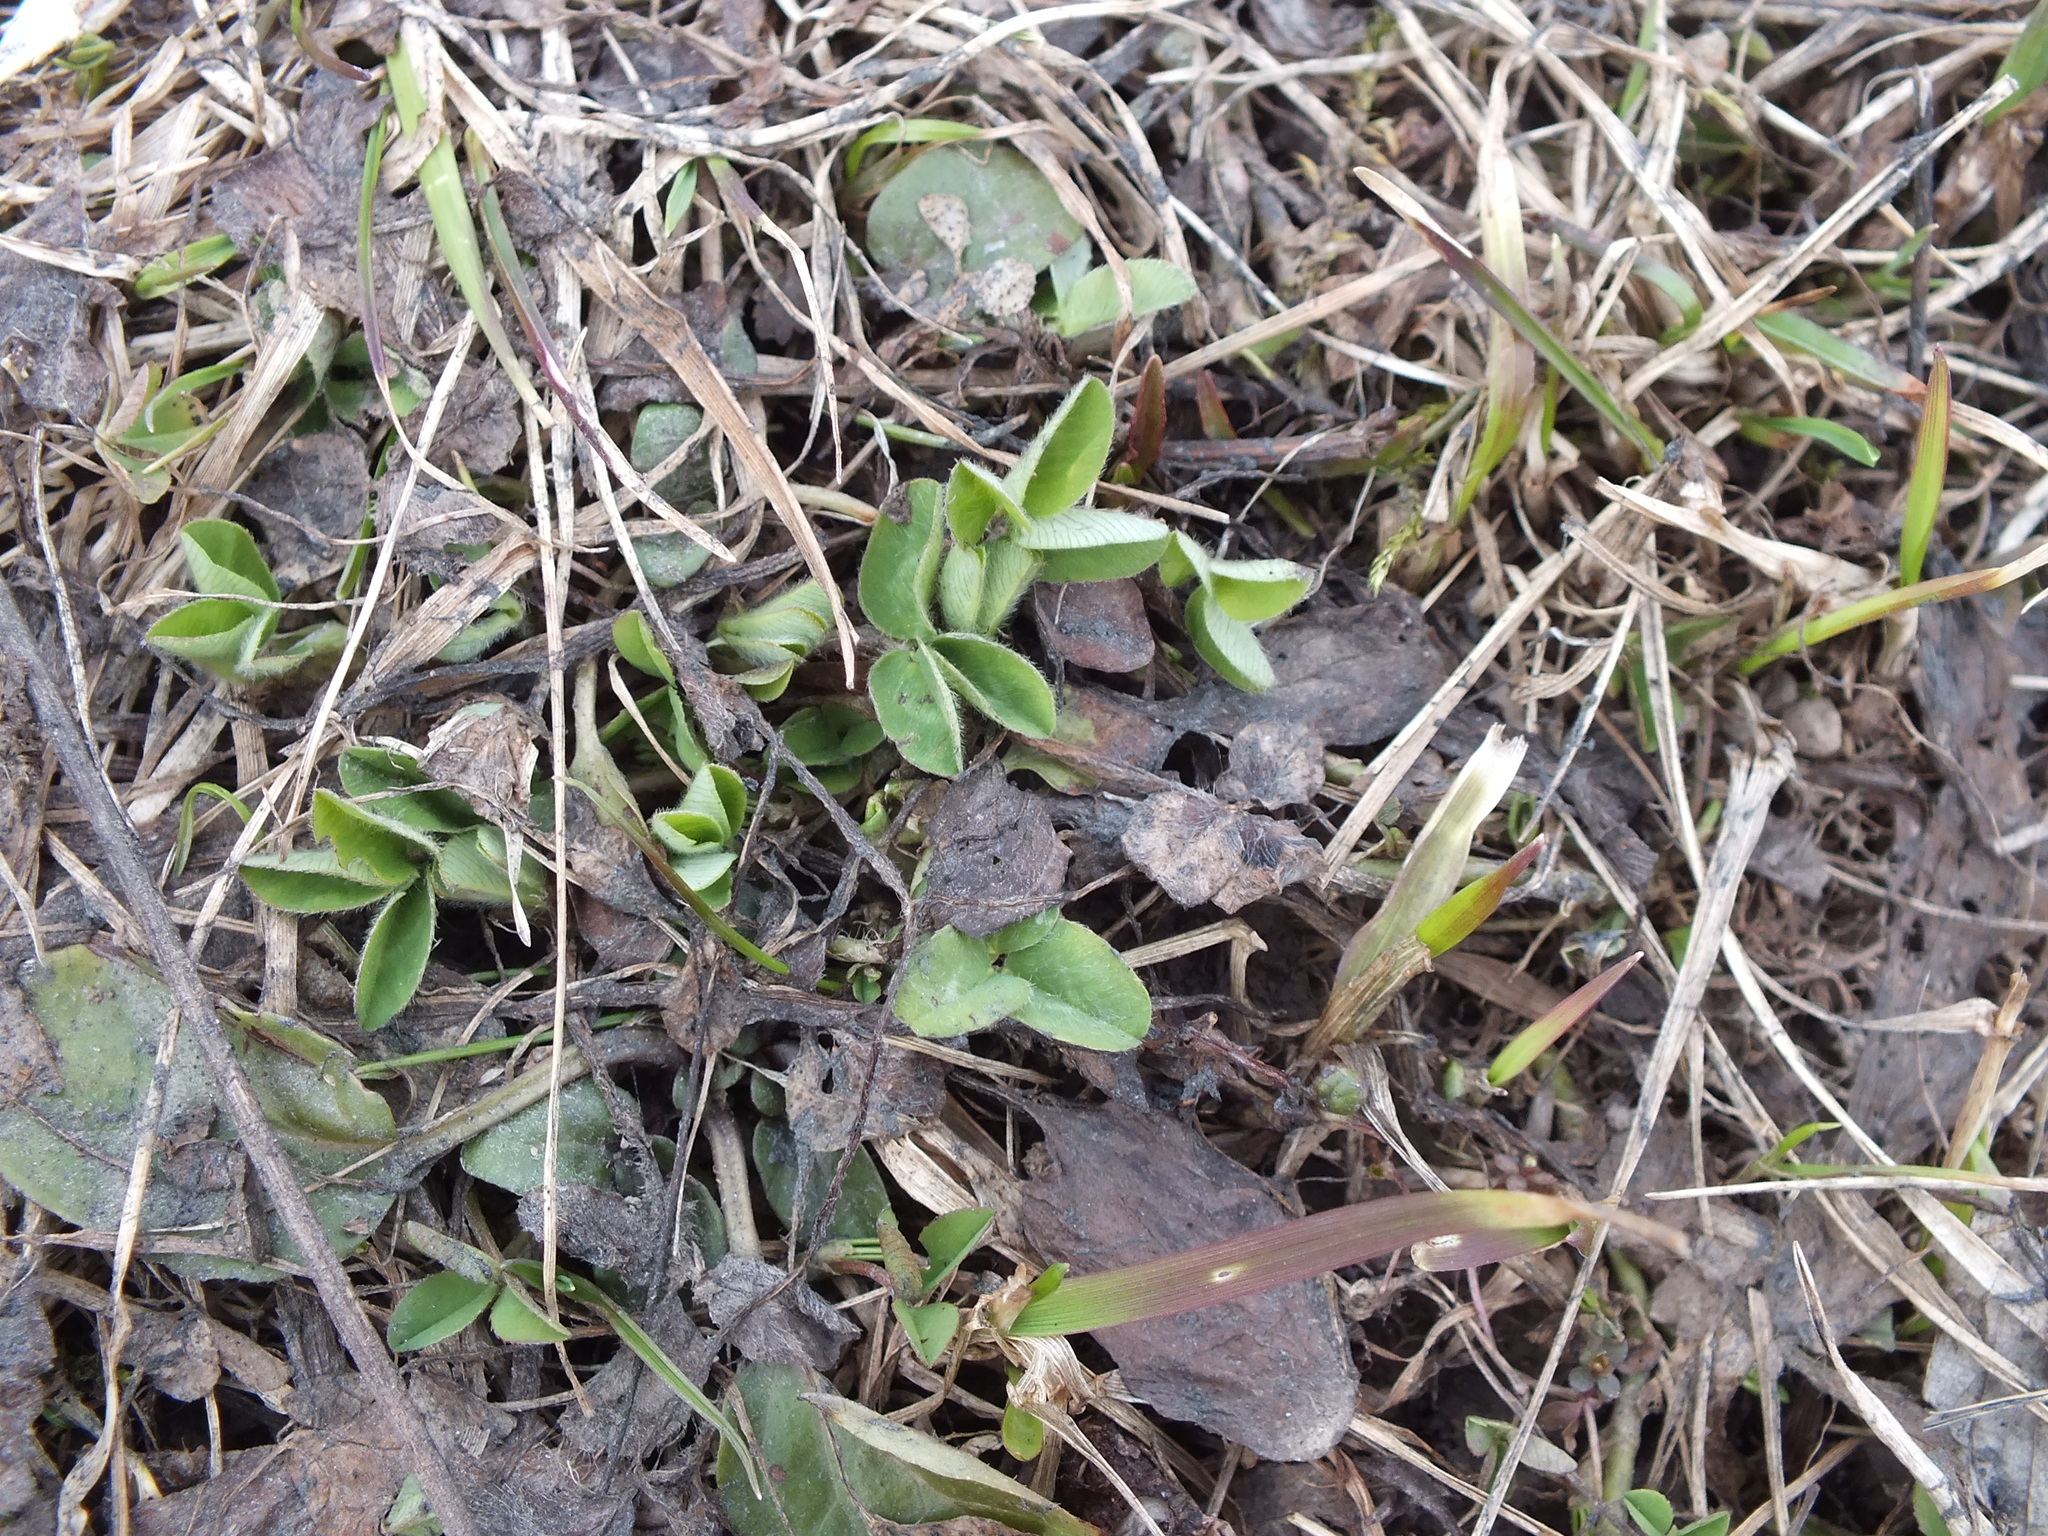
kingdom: Plantae
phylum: Tracheophyta
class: Magnoliopsida
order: Fabales
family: Fabaceae
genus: Trifolium
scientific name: Trifolium pratense
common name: Red clover
